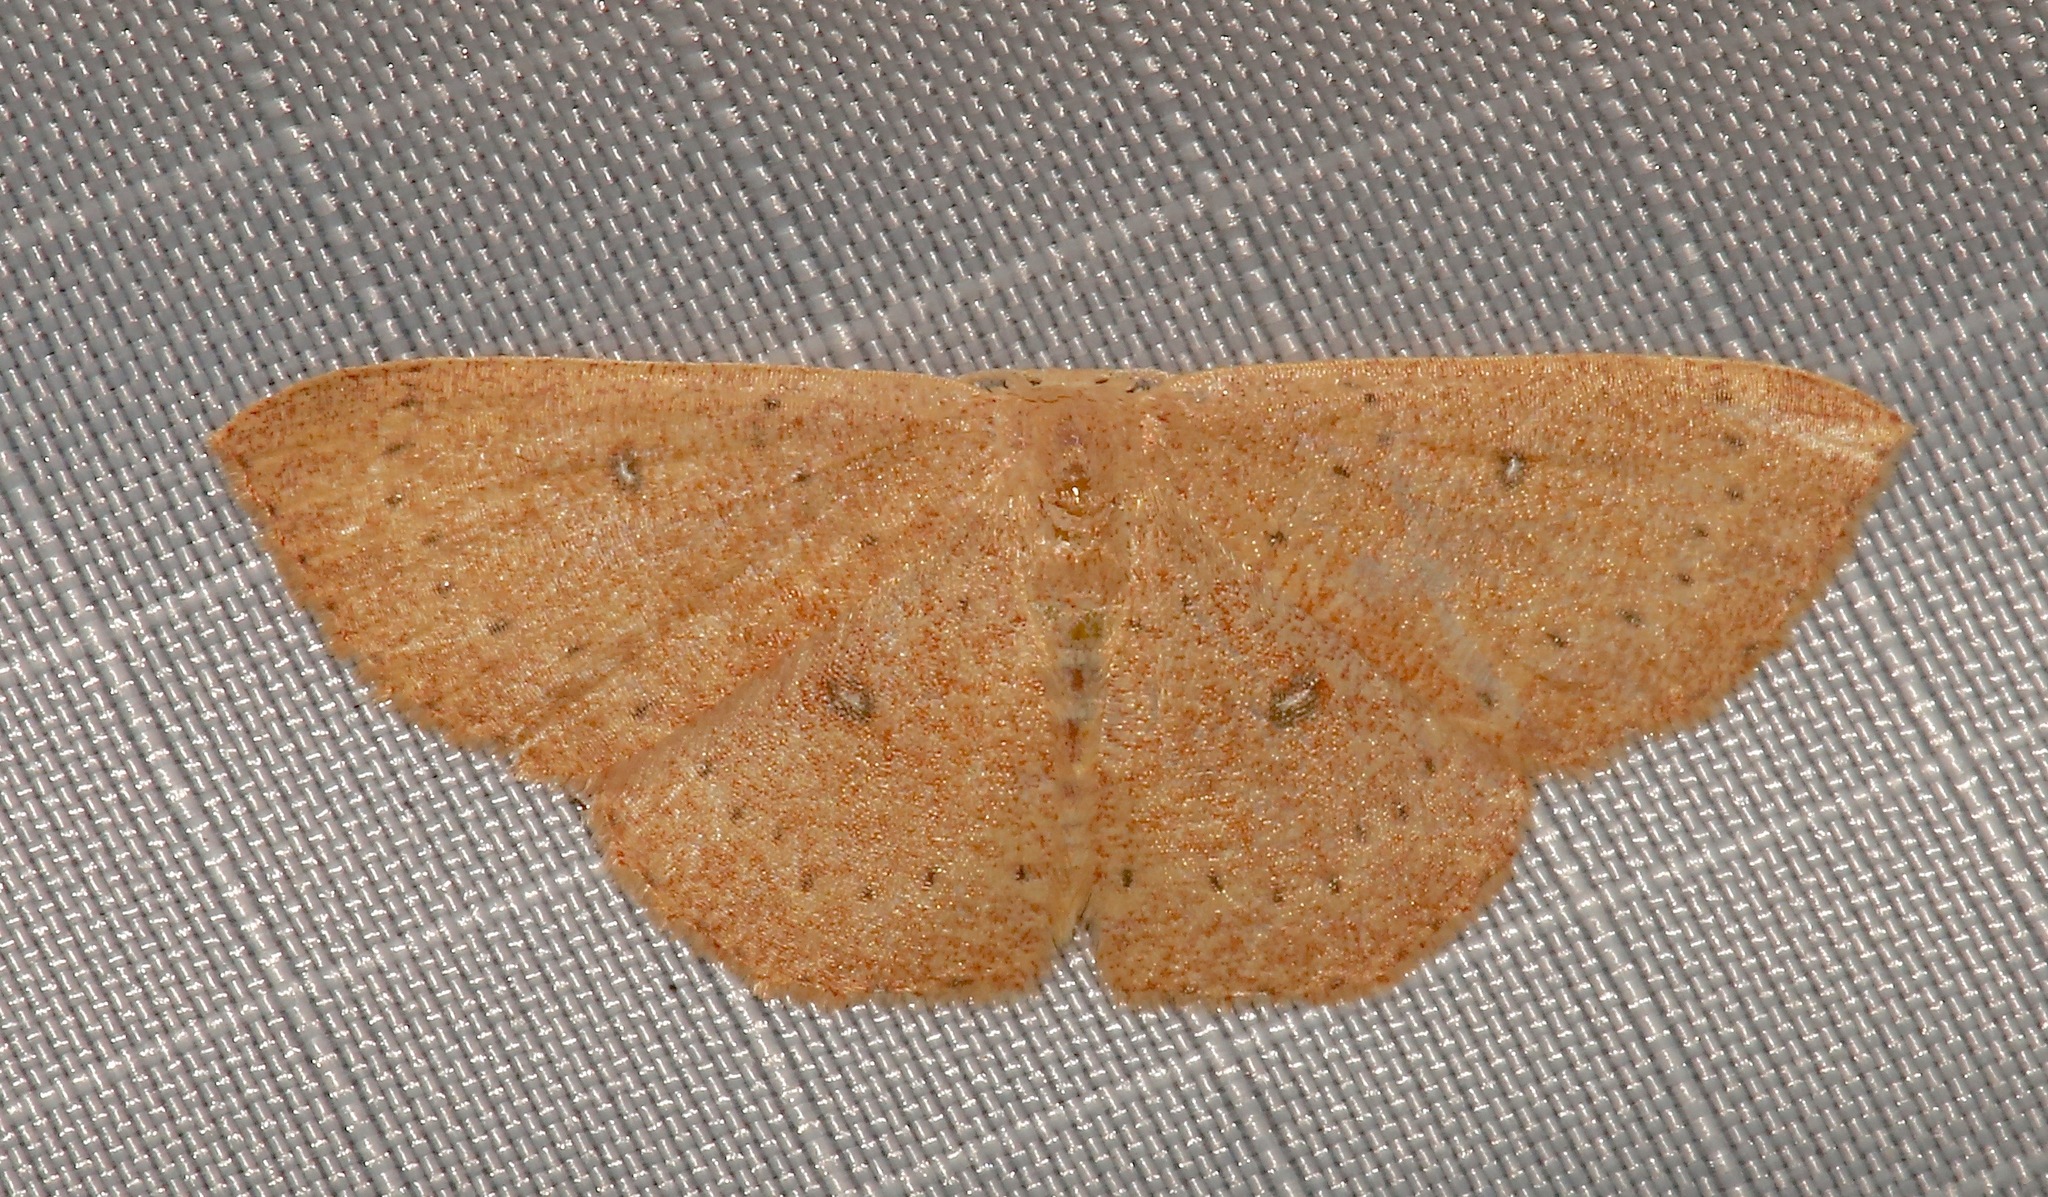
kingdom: Animalia
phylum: Arthropoda
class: Insecta
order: Lepidoptera
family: Geometridae
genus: Cyclophora
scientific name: Cyclophora packardi
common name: Packard's wave
